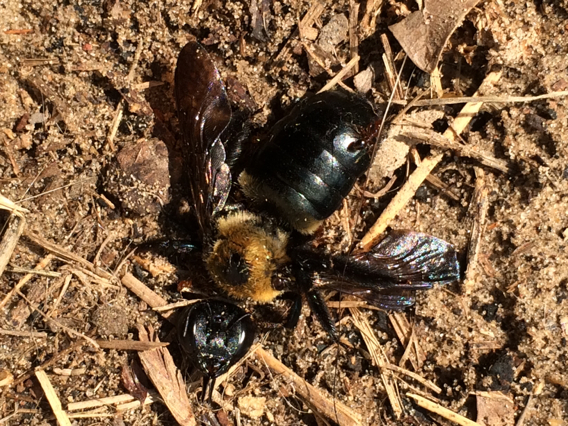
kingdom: Animalia
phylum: Arthropoda
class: Insecta
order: Hymenoptera
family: Apidae
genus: Xylocopa
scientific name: Xylocopa virginica
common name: Carpenter bee
